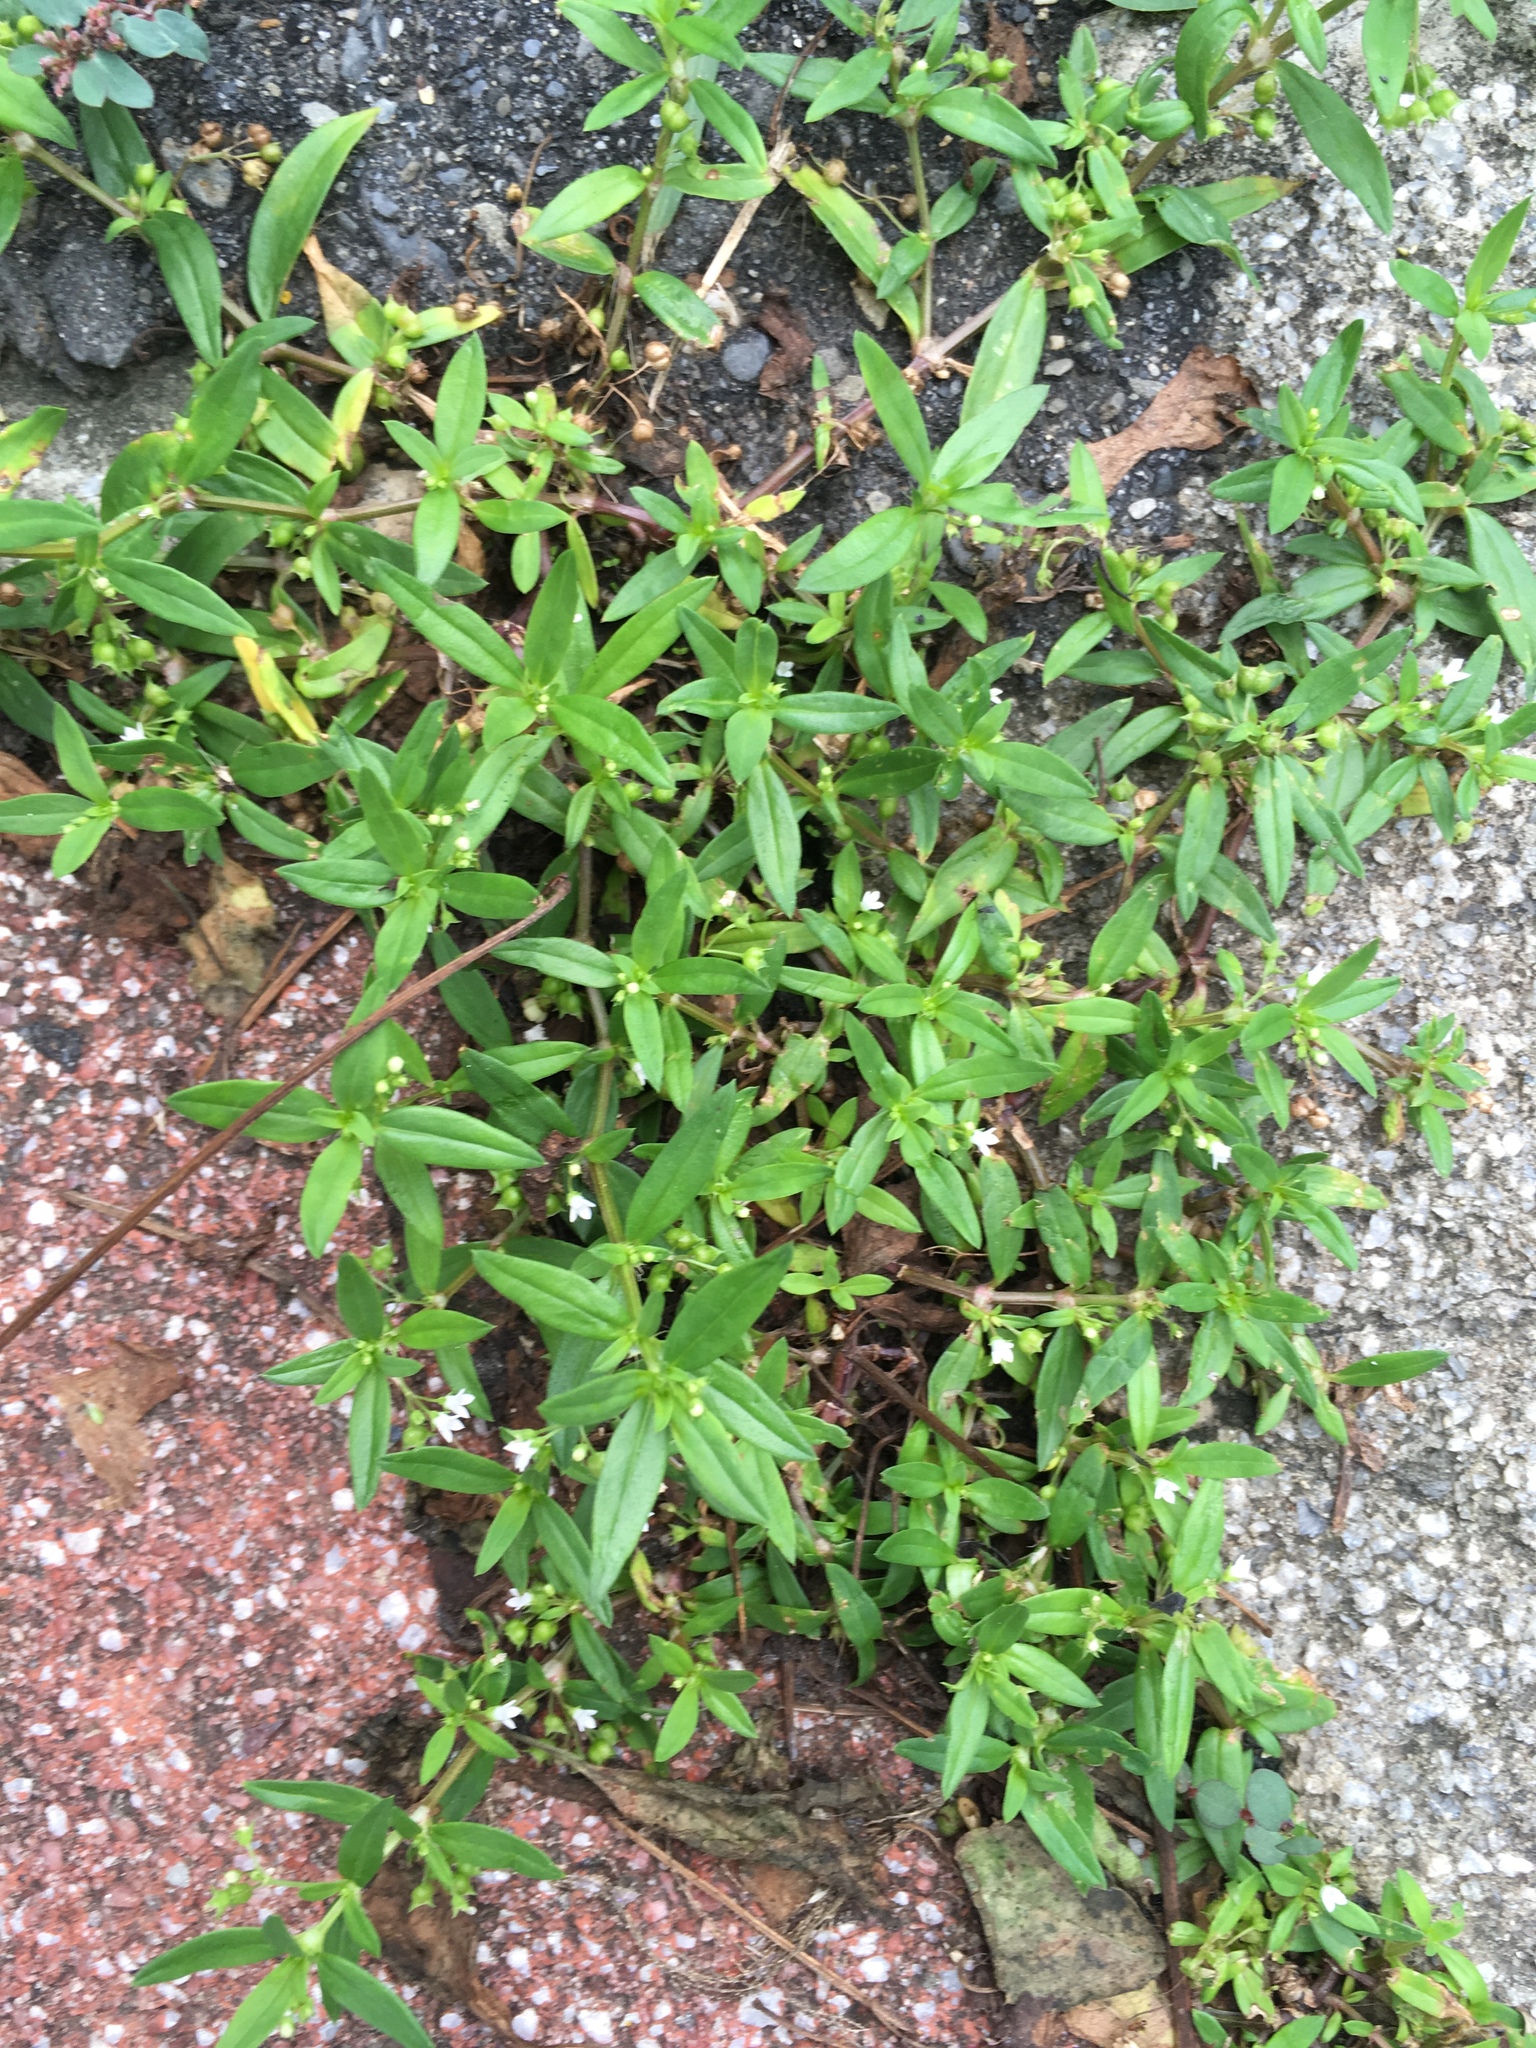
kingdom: Plantae
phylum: Tracheophyta
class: Magnoliopsida
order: Gentianales
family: Rubiaceae
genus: Oldenlandia
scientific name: Oldenlandia corymbosa
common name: Flat-top mille graines
